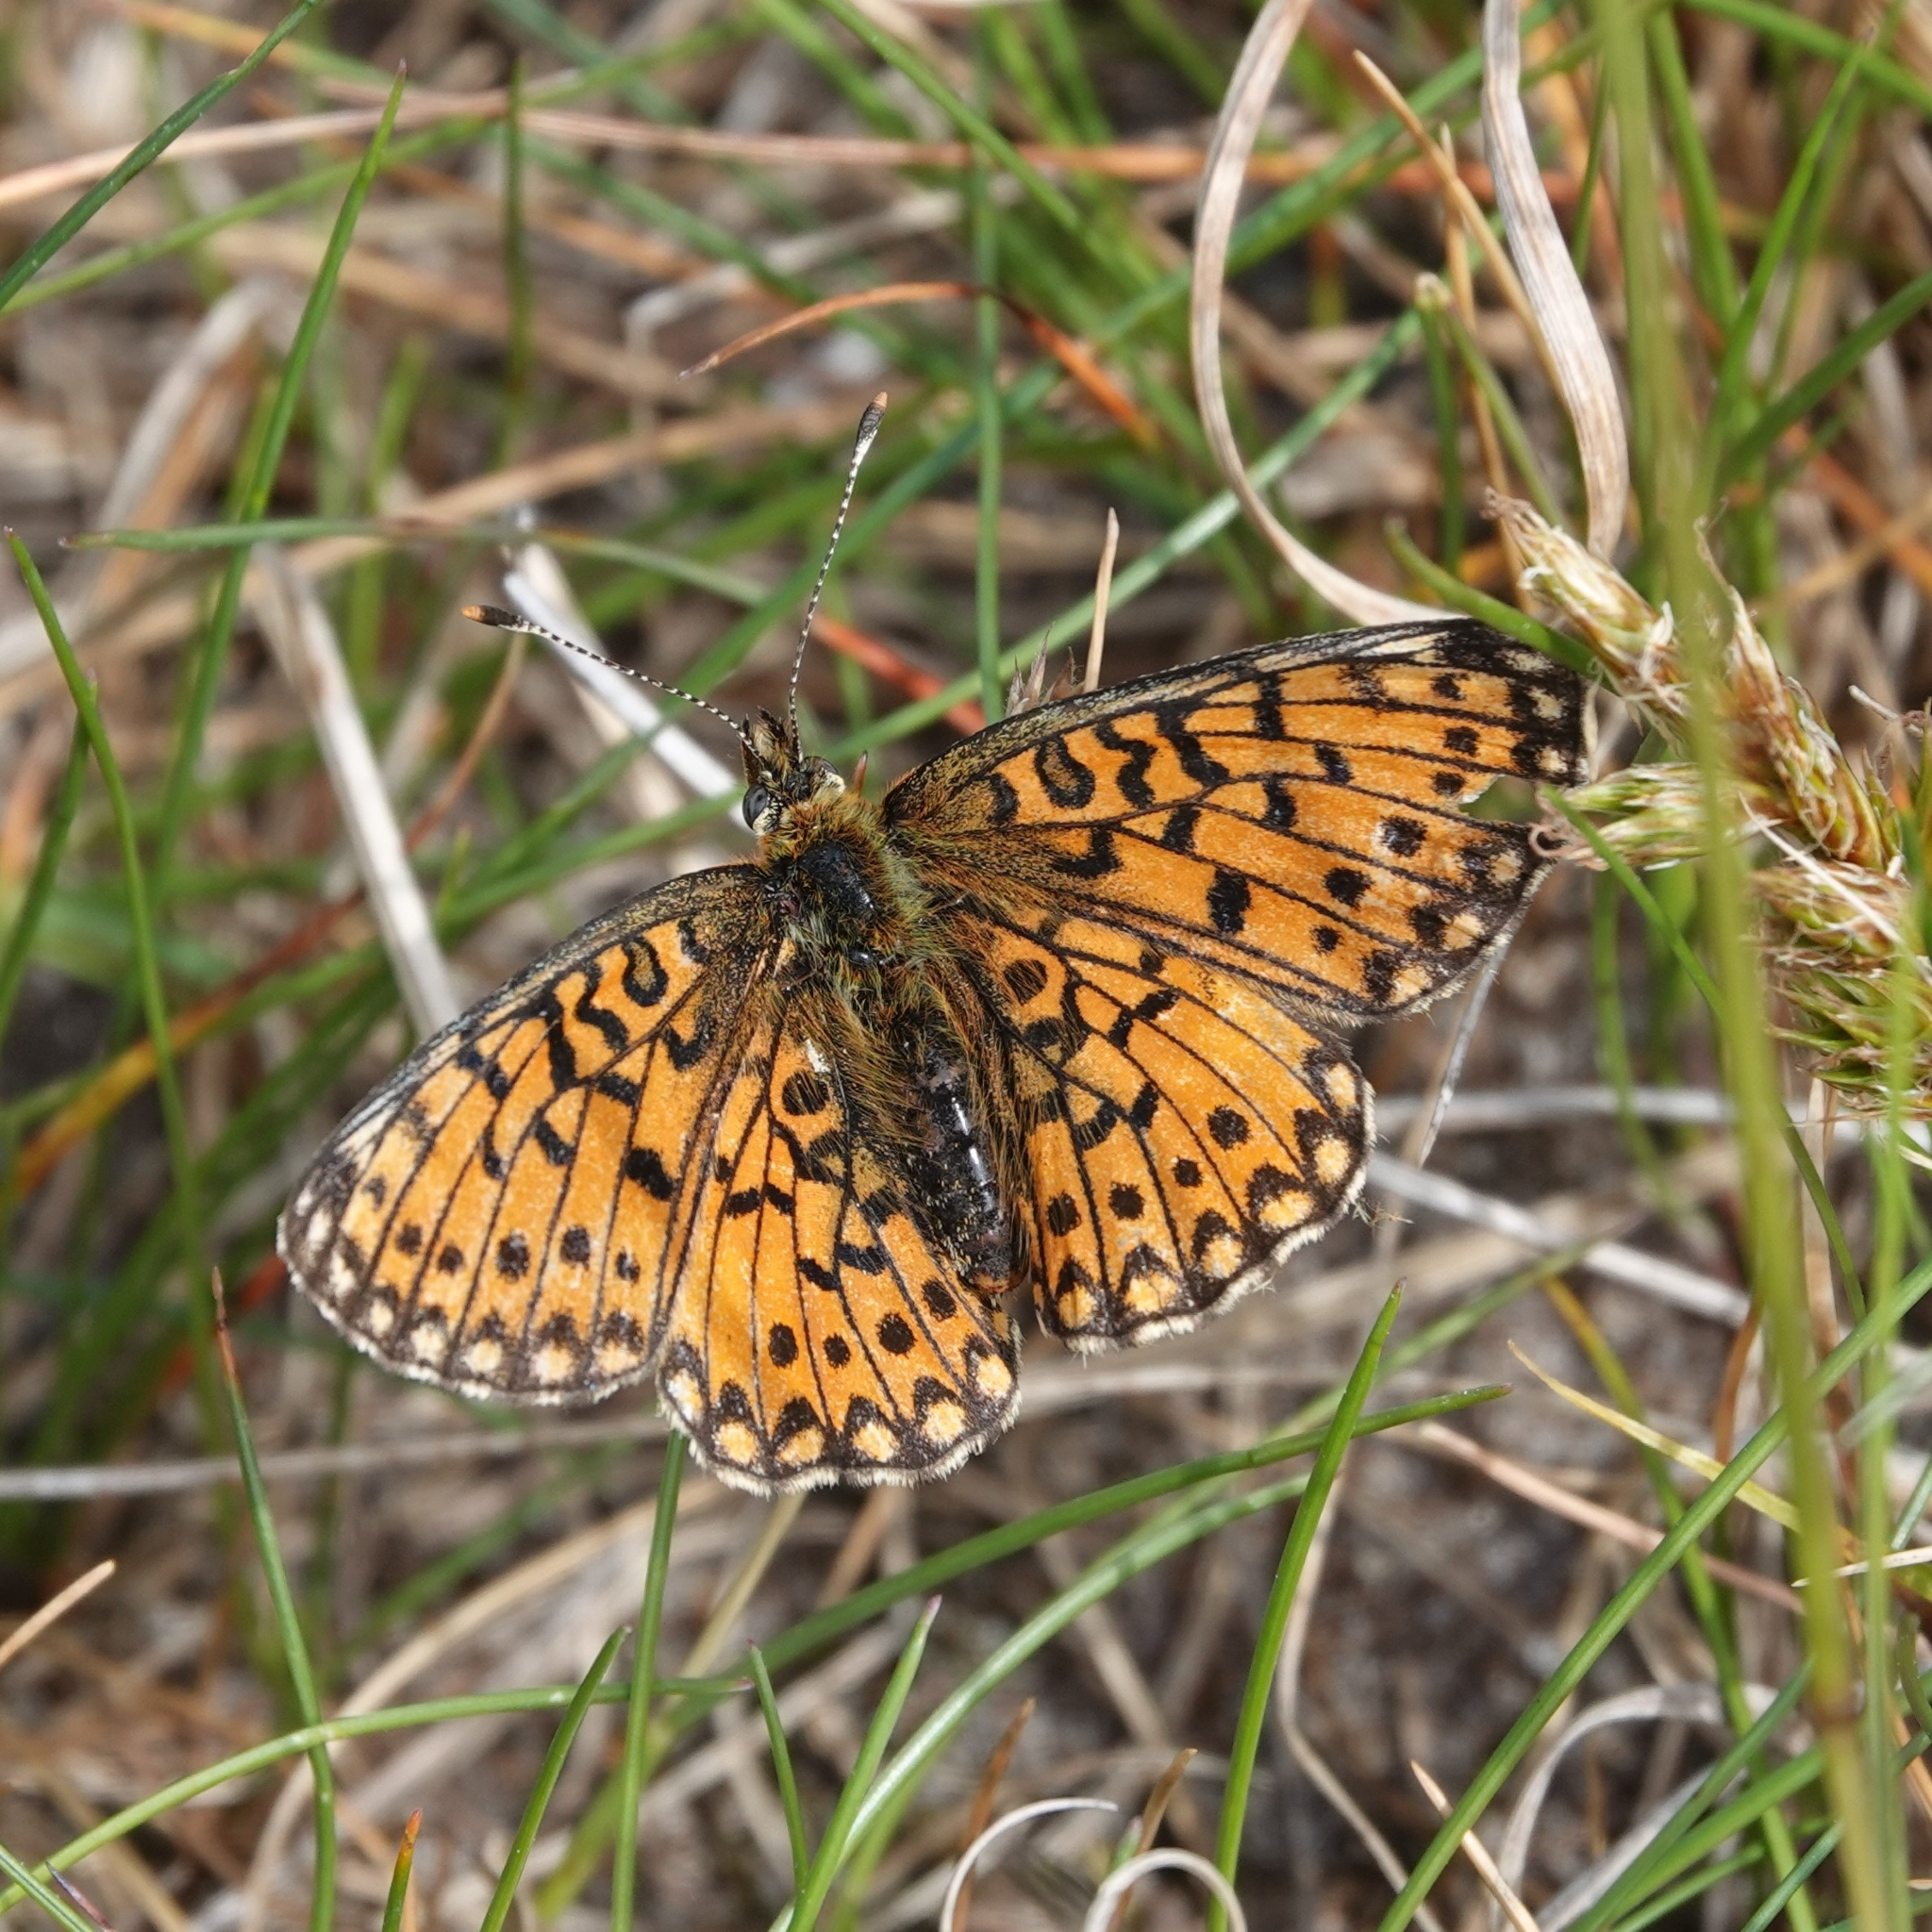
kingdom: Animalia
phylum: Arthropoda
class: Insecta
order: Lepidoptera
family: Nymphalidae
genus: Boloria
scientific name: Boloria selene
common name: Small pearl-bordered fritillary
